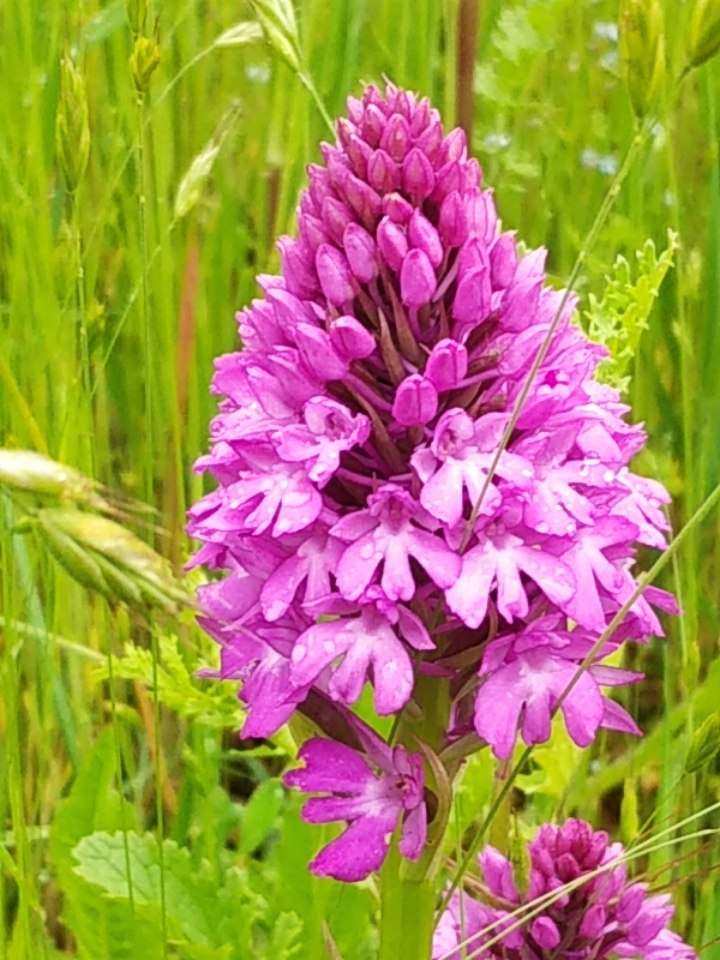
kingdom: Plantae
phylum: Tracheophyta
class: Liliopsida
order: Asparagales
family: Orchidaceae
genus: Anacamptis
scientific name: Anacamptis pyramidalis
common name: Pyramidal orchid
